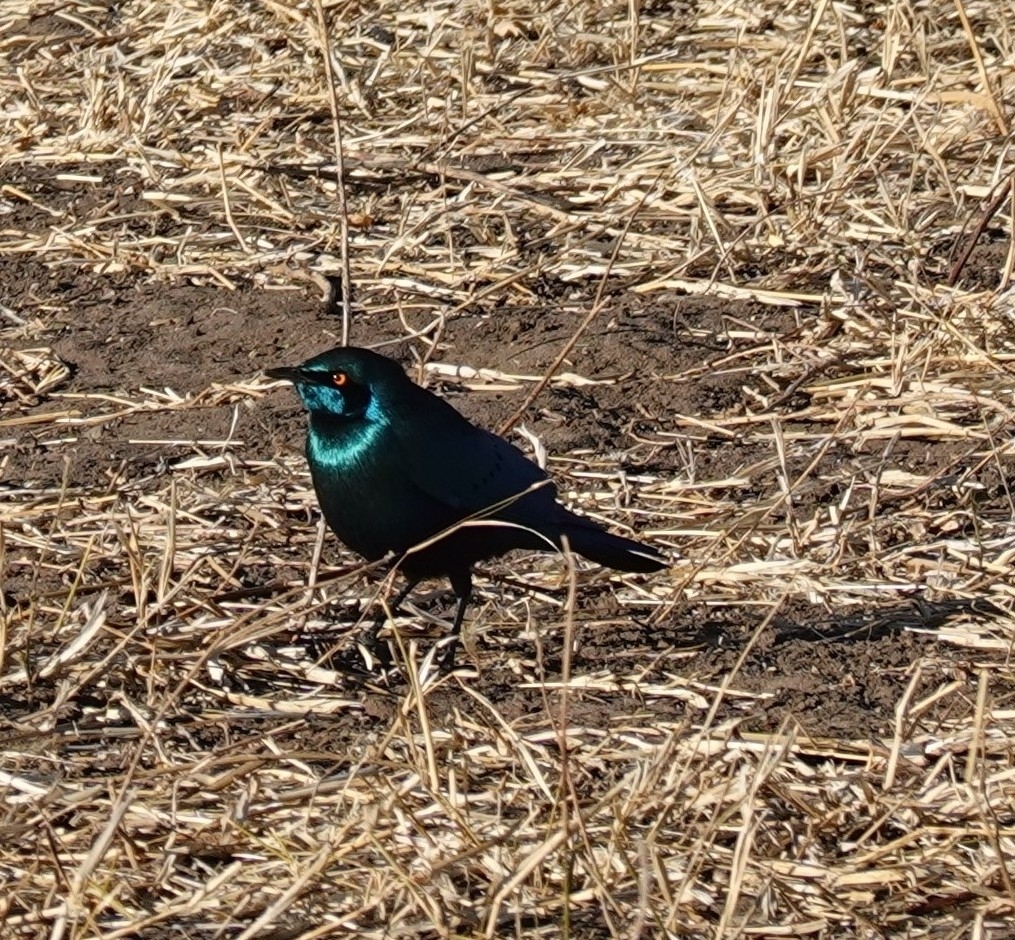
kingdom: Animalia
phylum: Chordata
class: Aves
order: Passeriformes
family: Sturnidae
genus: Lamprotornis
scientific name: Lamprotornis chalybaeus
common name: Greater blue-eared starling
